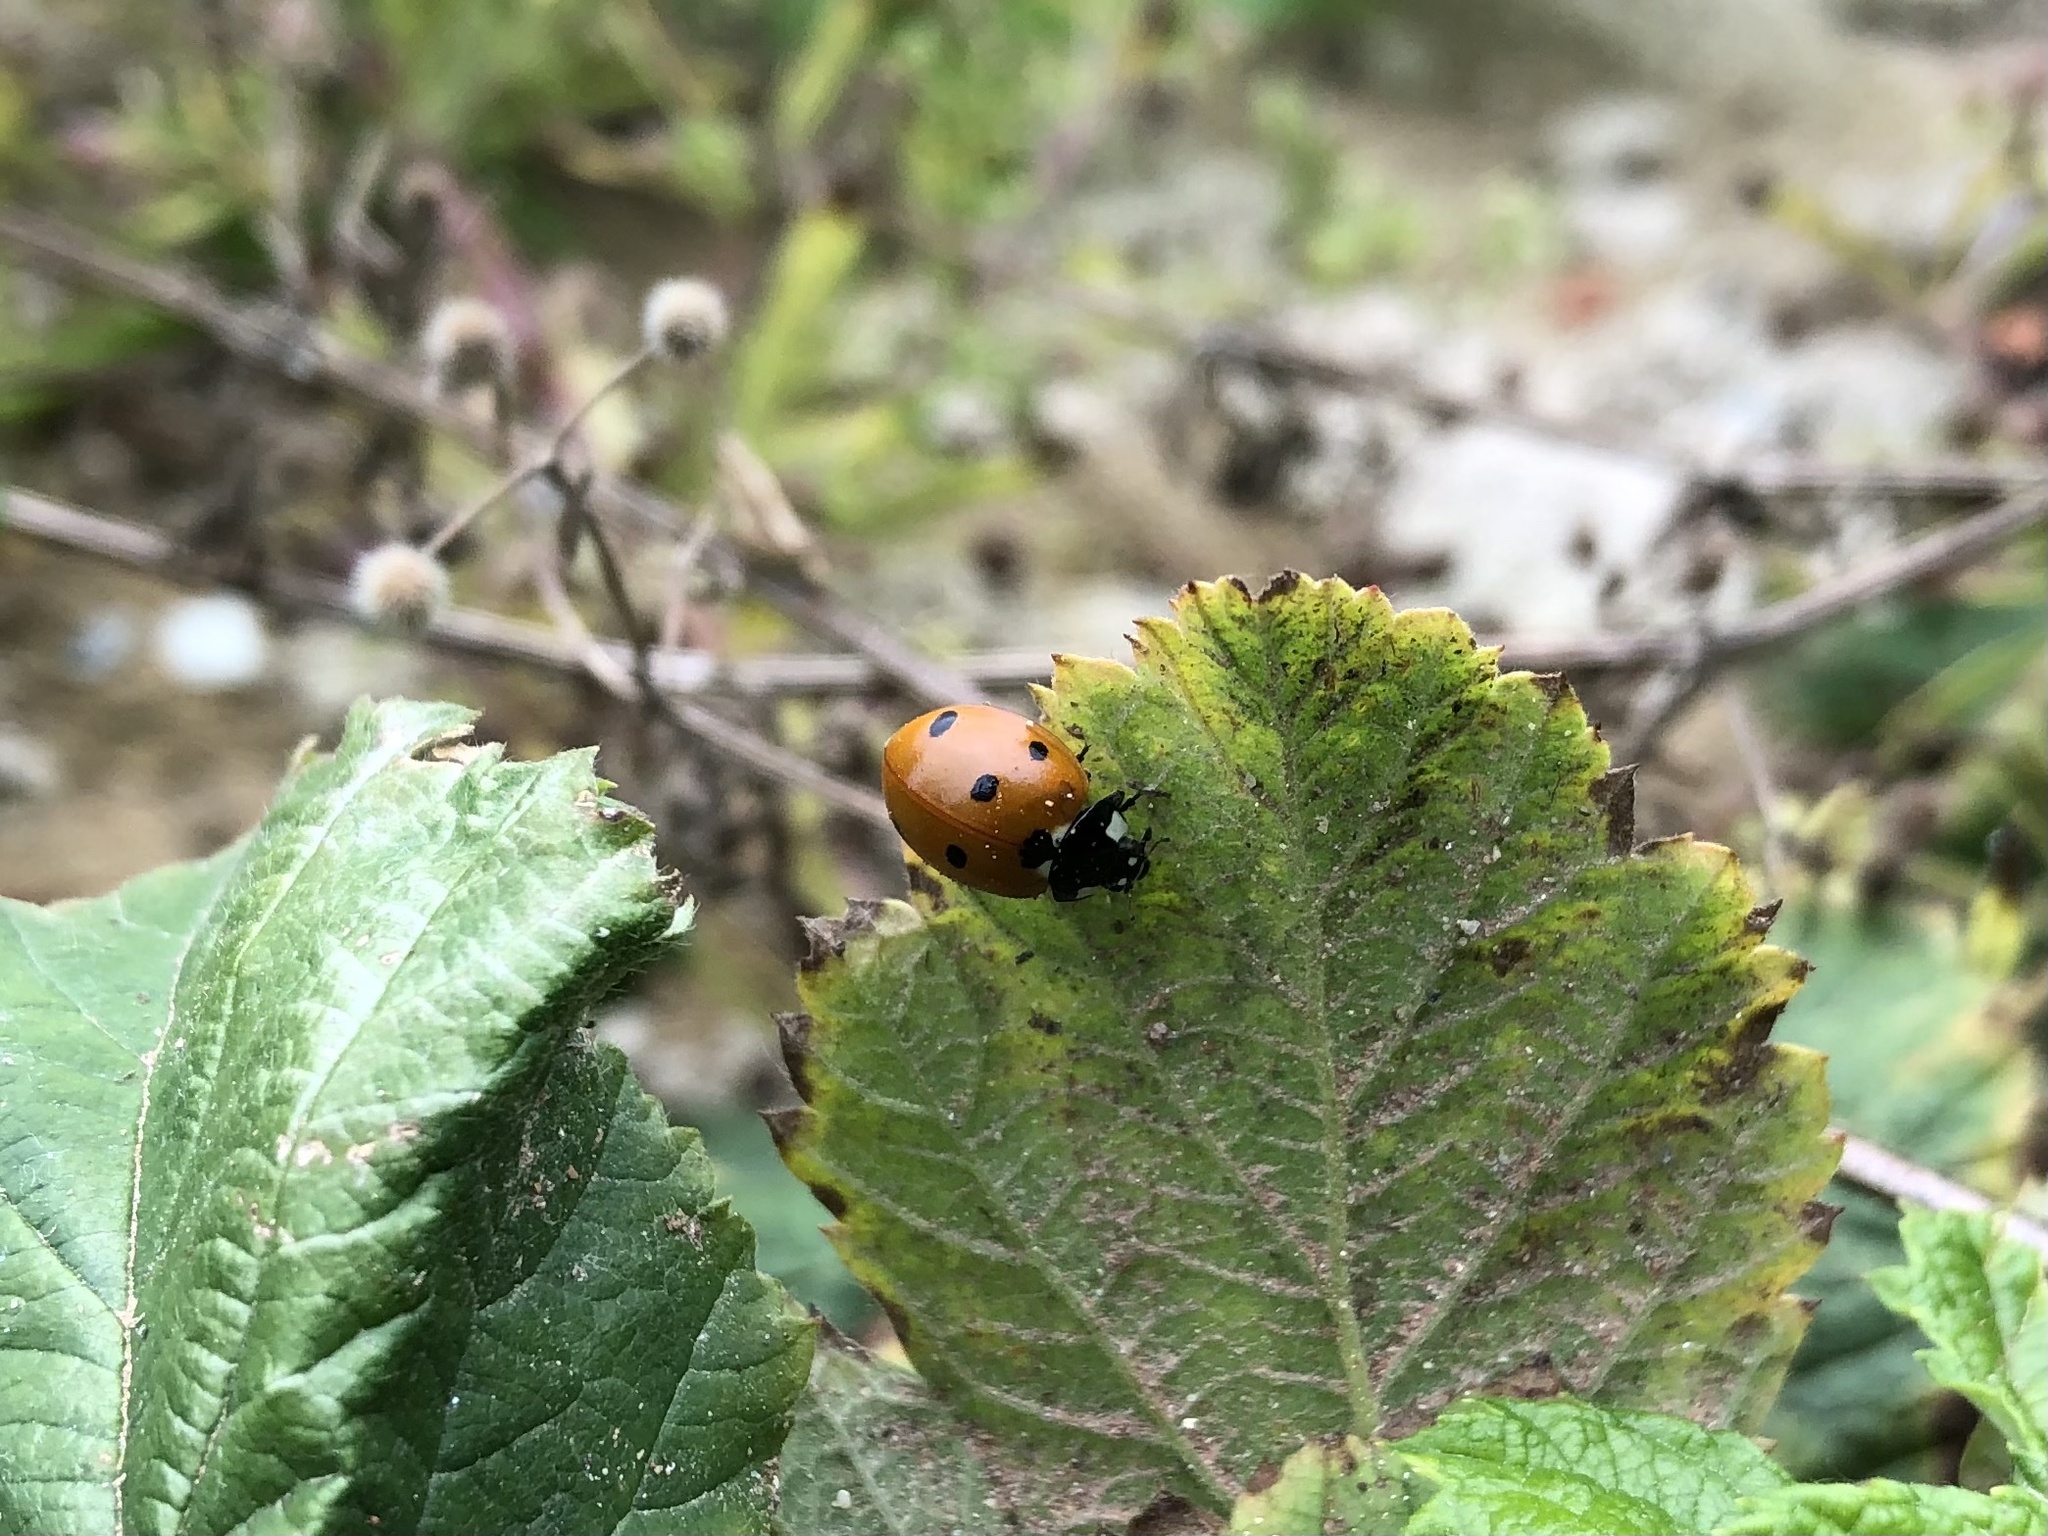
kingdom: Animalia
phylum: Arthropoda
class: Insecta
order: Coleoptera
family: Coccinellidae
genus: Coccinella
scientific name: Coccinella septempunctata
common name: Sevenspotted lady beetle
